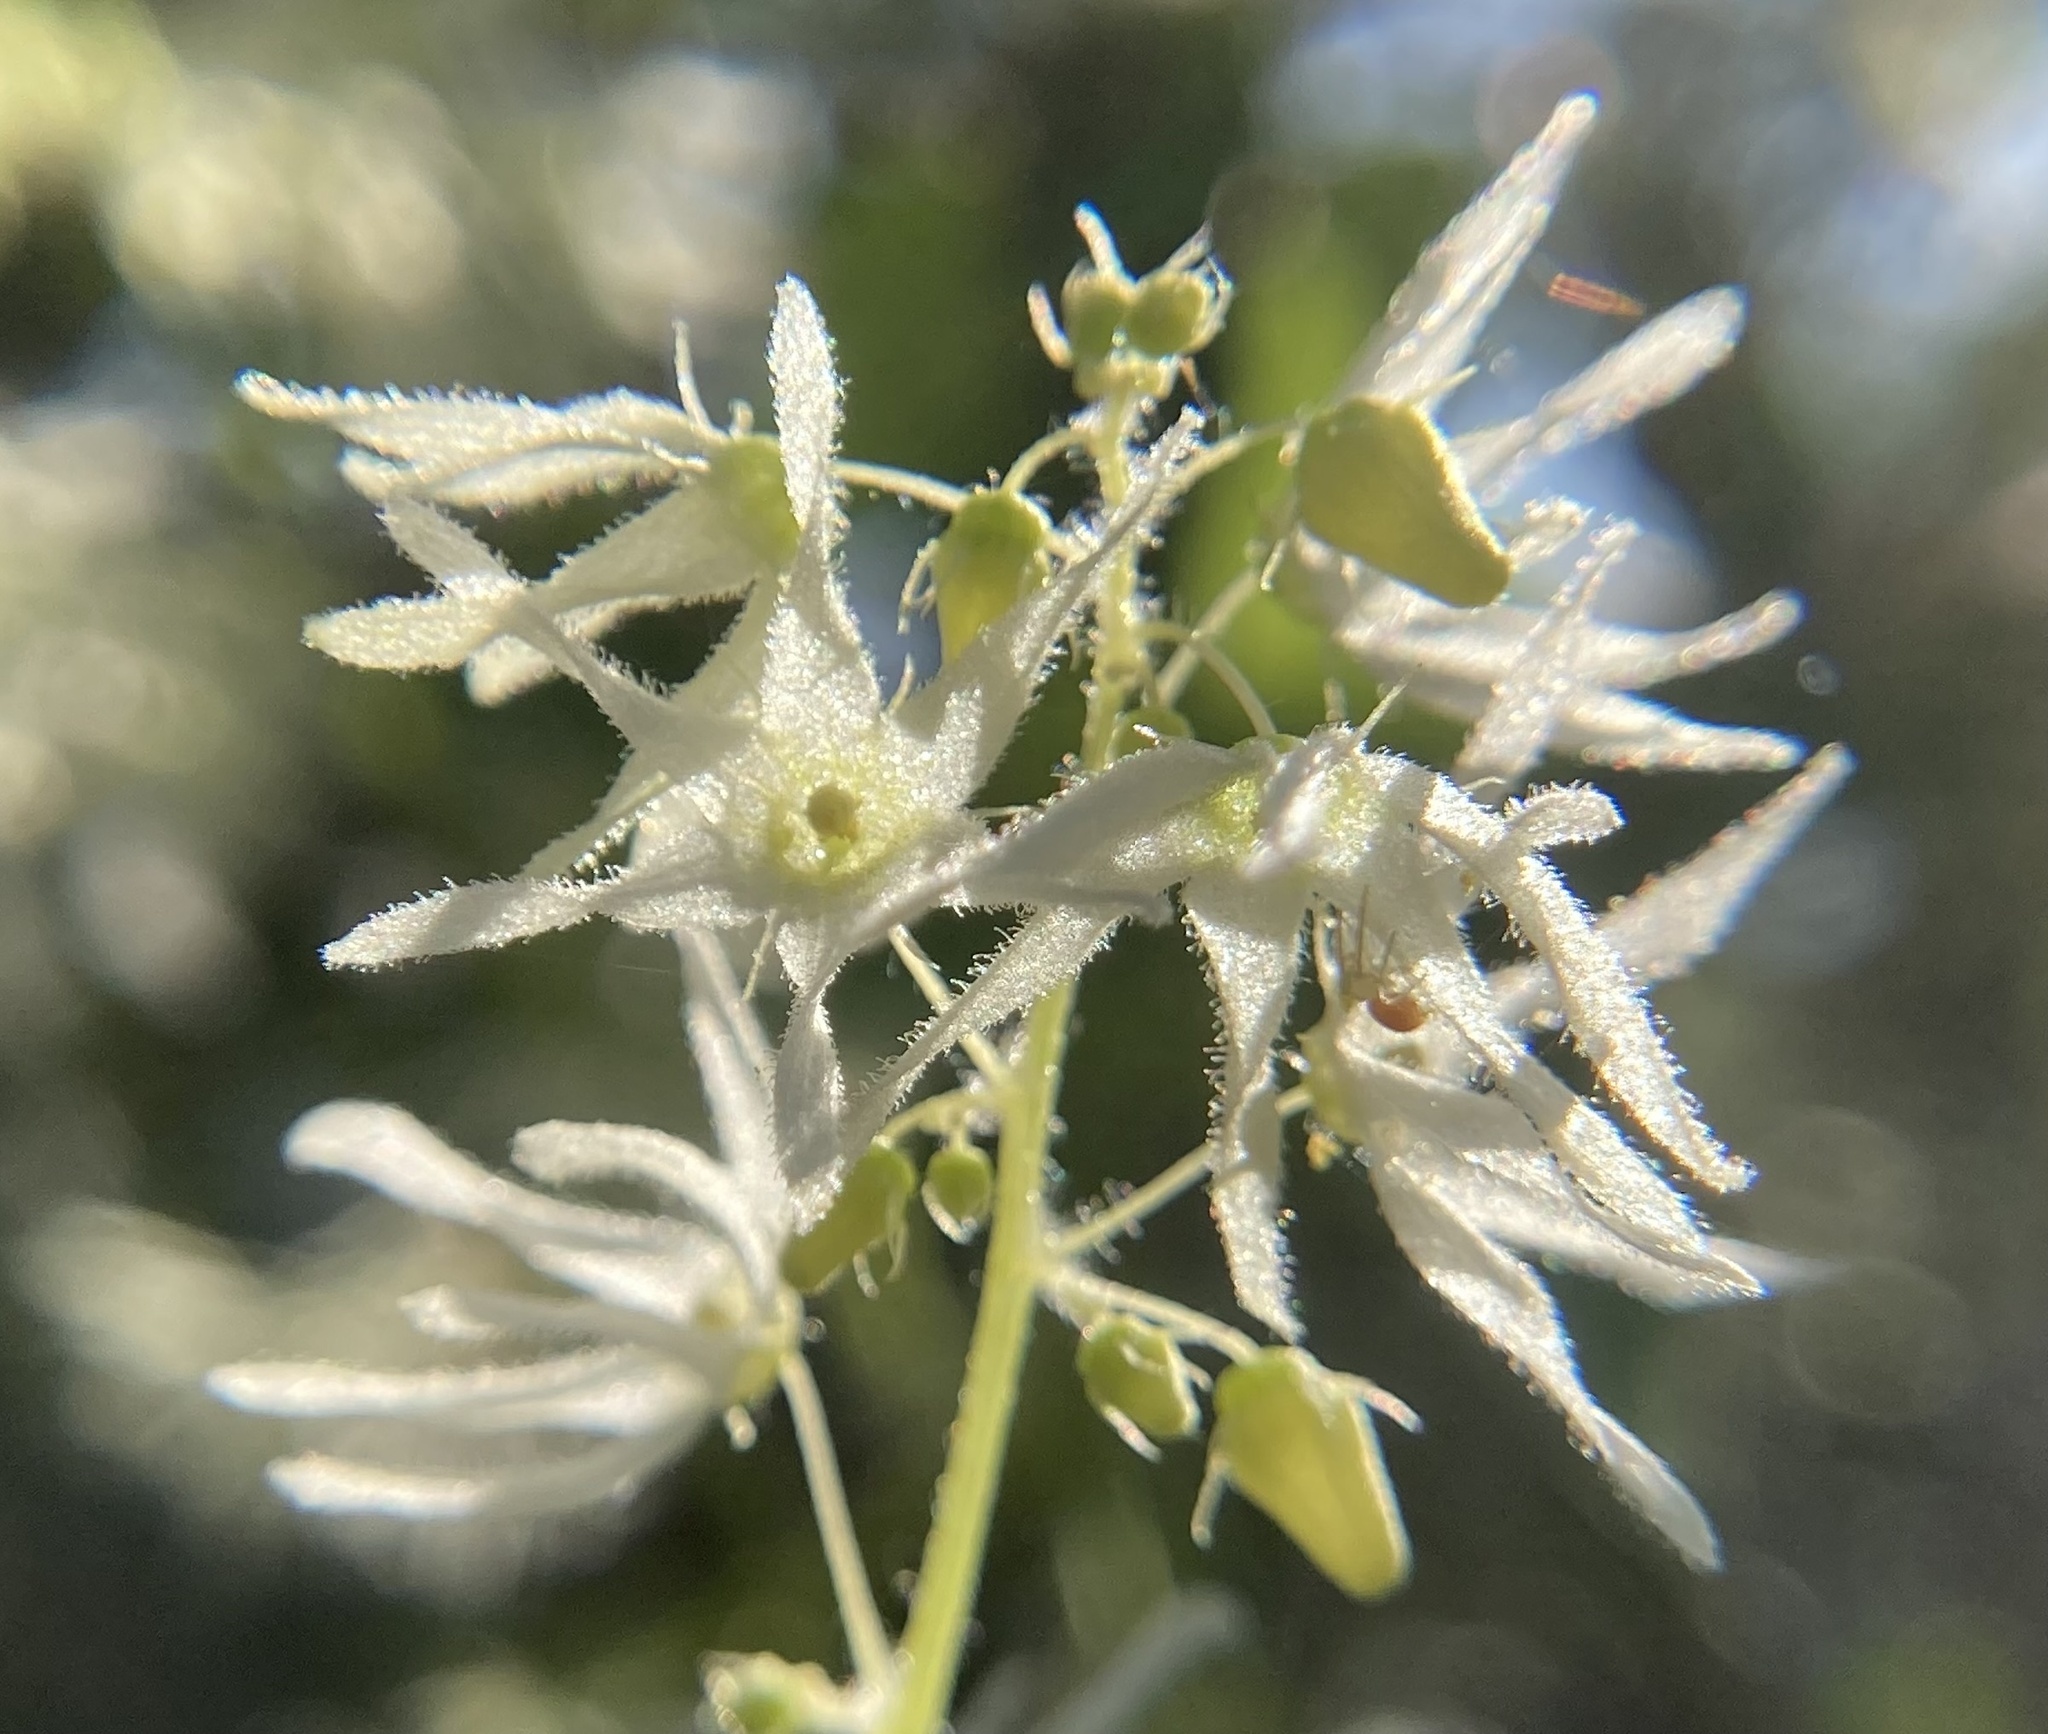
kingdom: Plantae
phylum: Tracheophyta
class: Magnoliopsida
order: Cucurbitales
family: Cucurbitaceae
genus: Echinocystis
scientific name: Echinocystis lobata
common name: Wild cucumber
